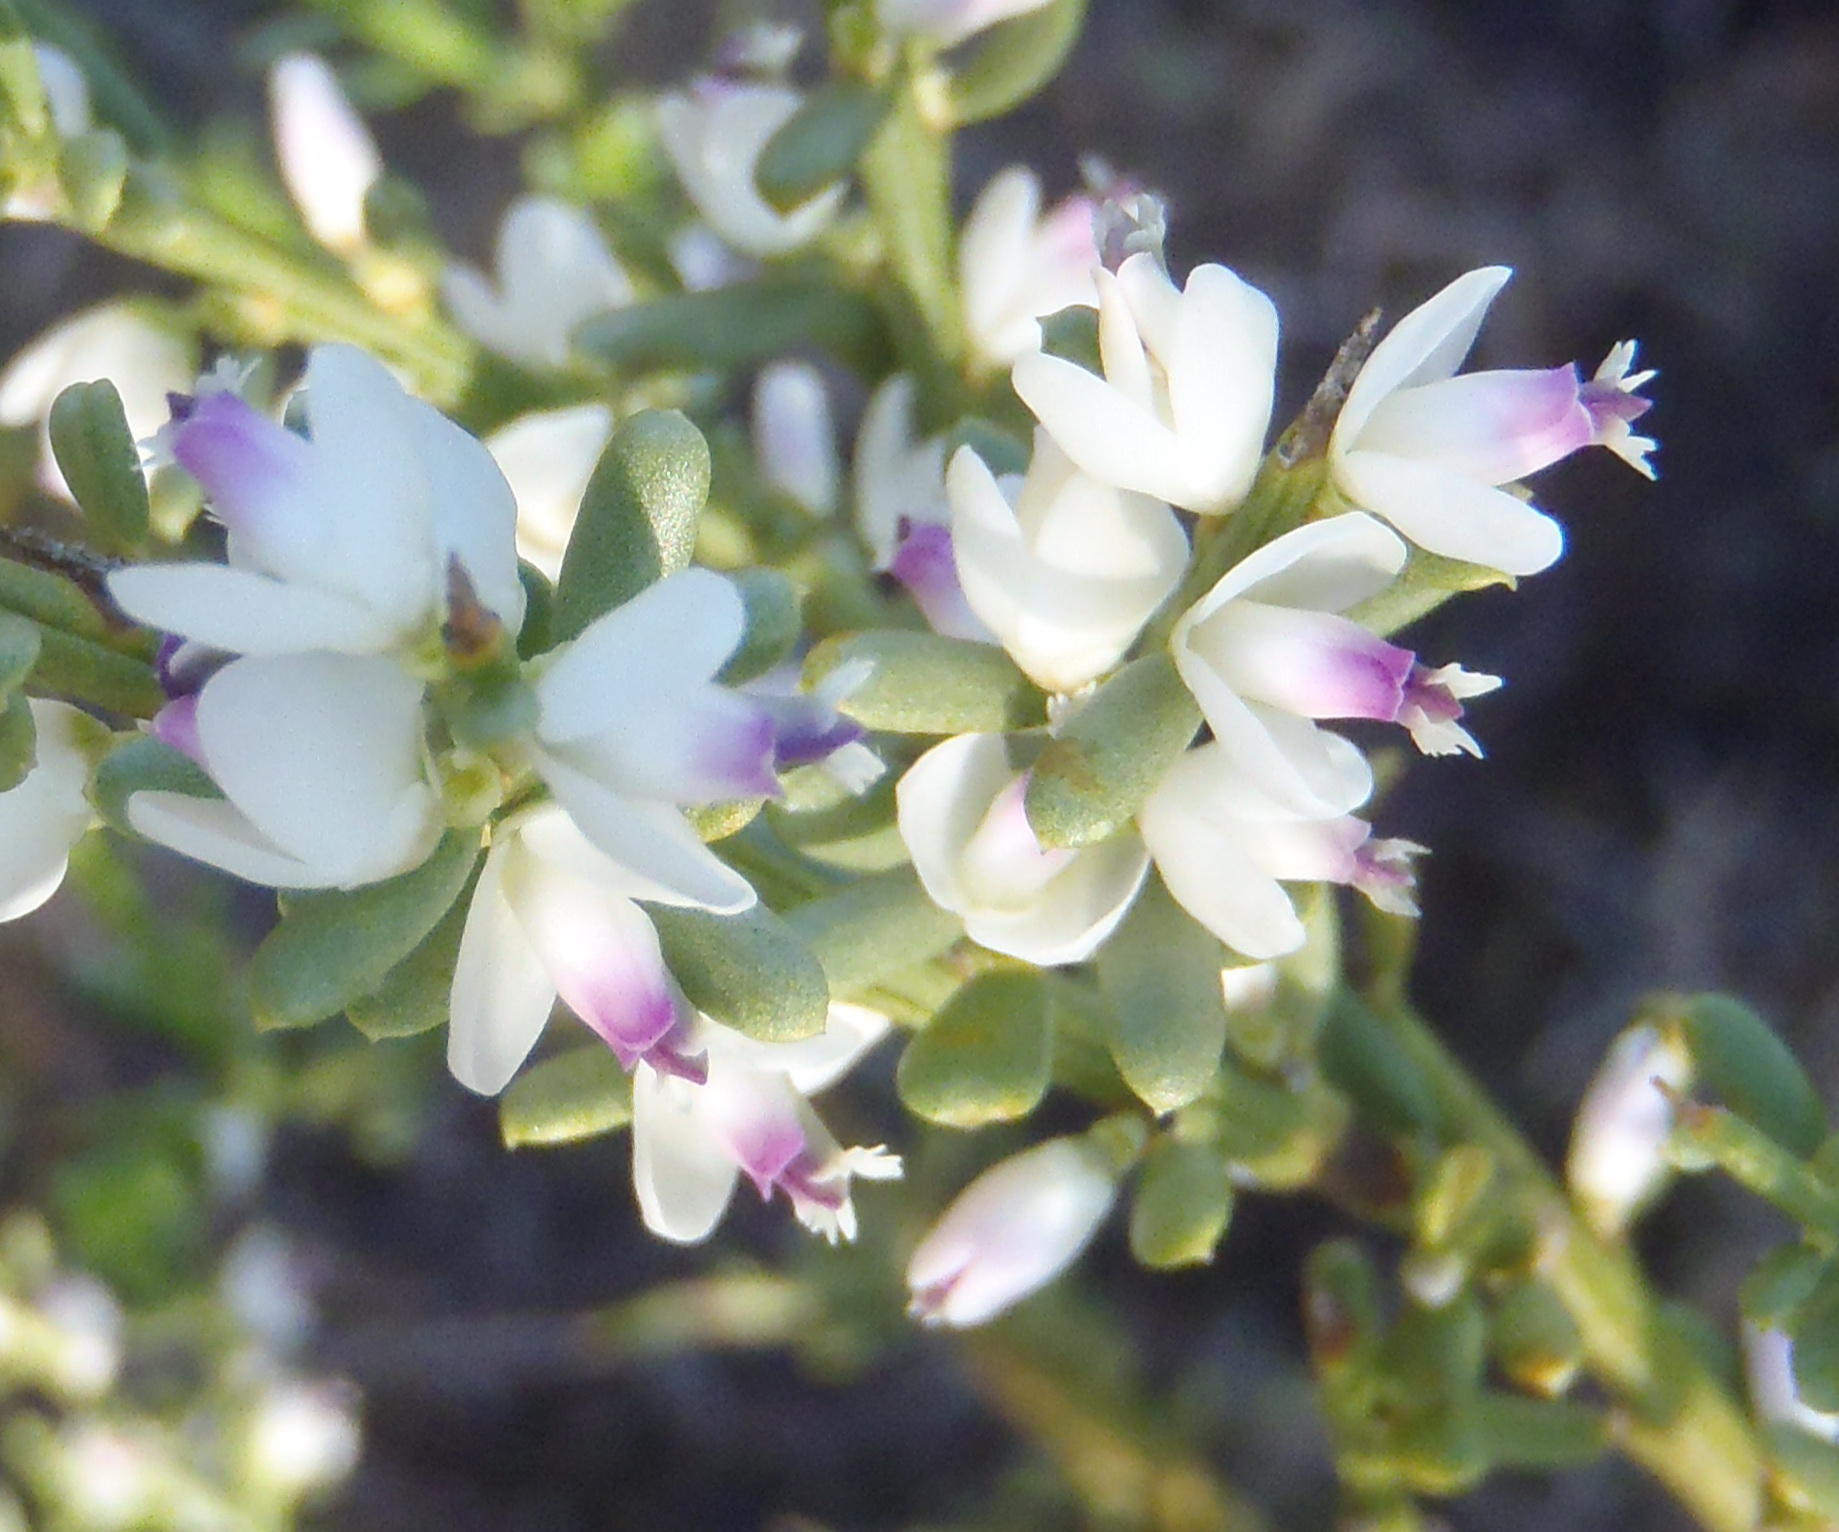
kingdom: Plantae
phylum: Tracheophyta
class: Magnoliopsida
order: Fabales
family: Polygalaceae
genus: Muraltia
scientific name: Muraltia spinosa
